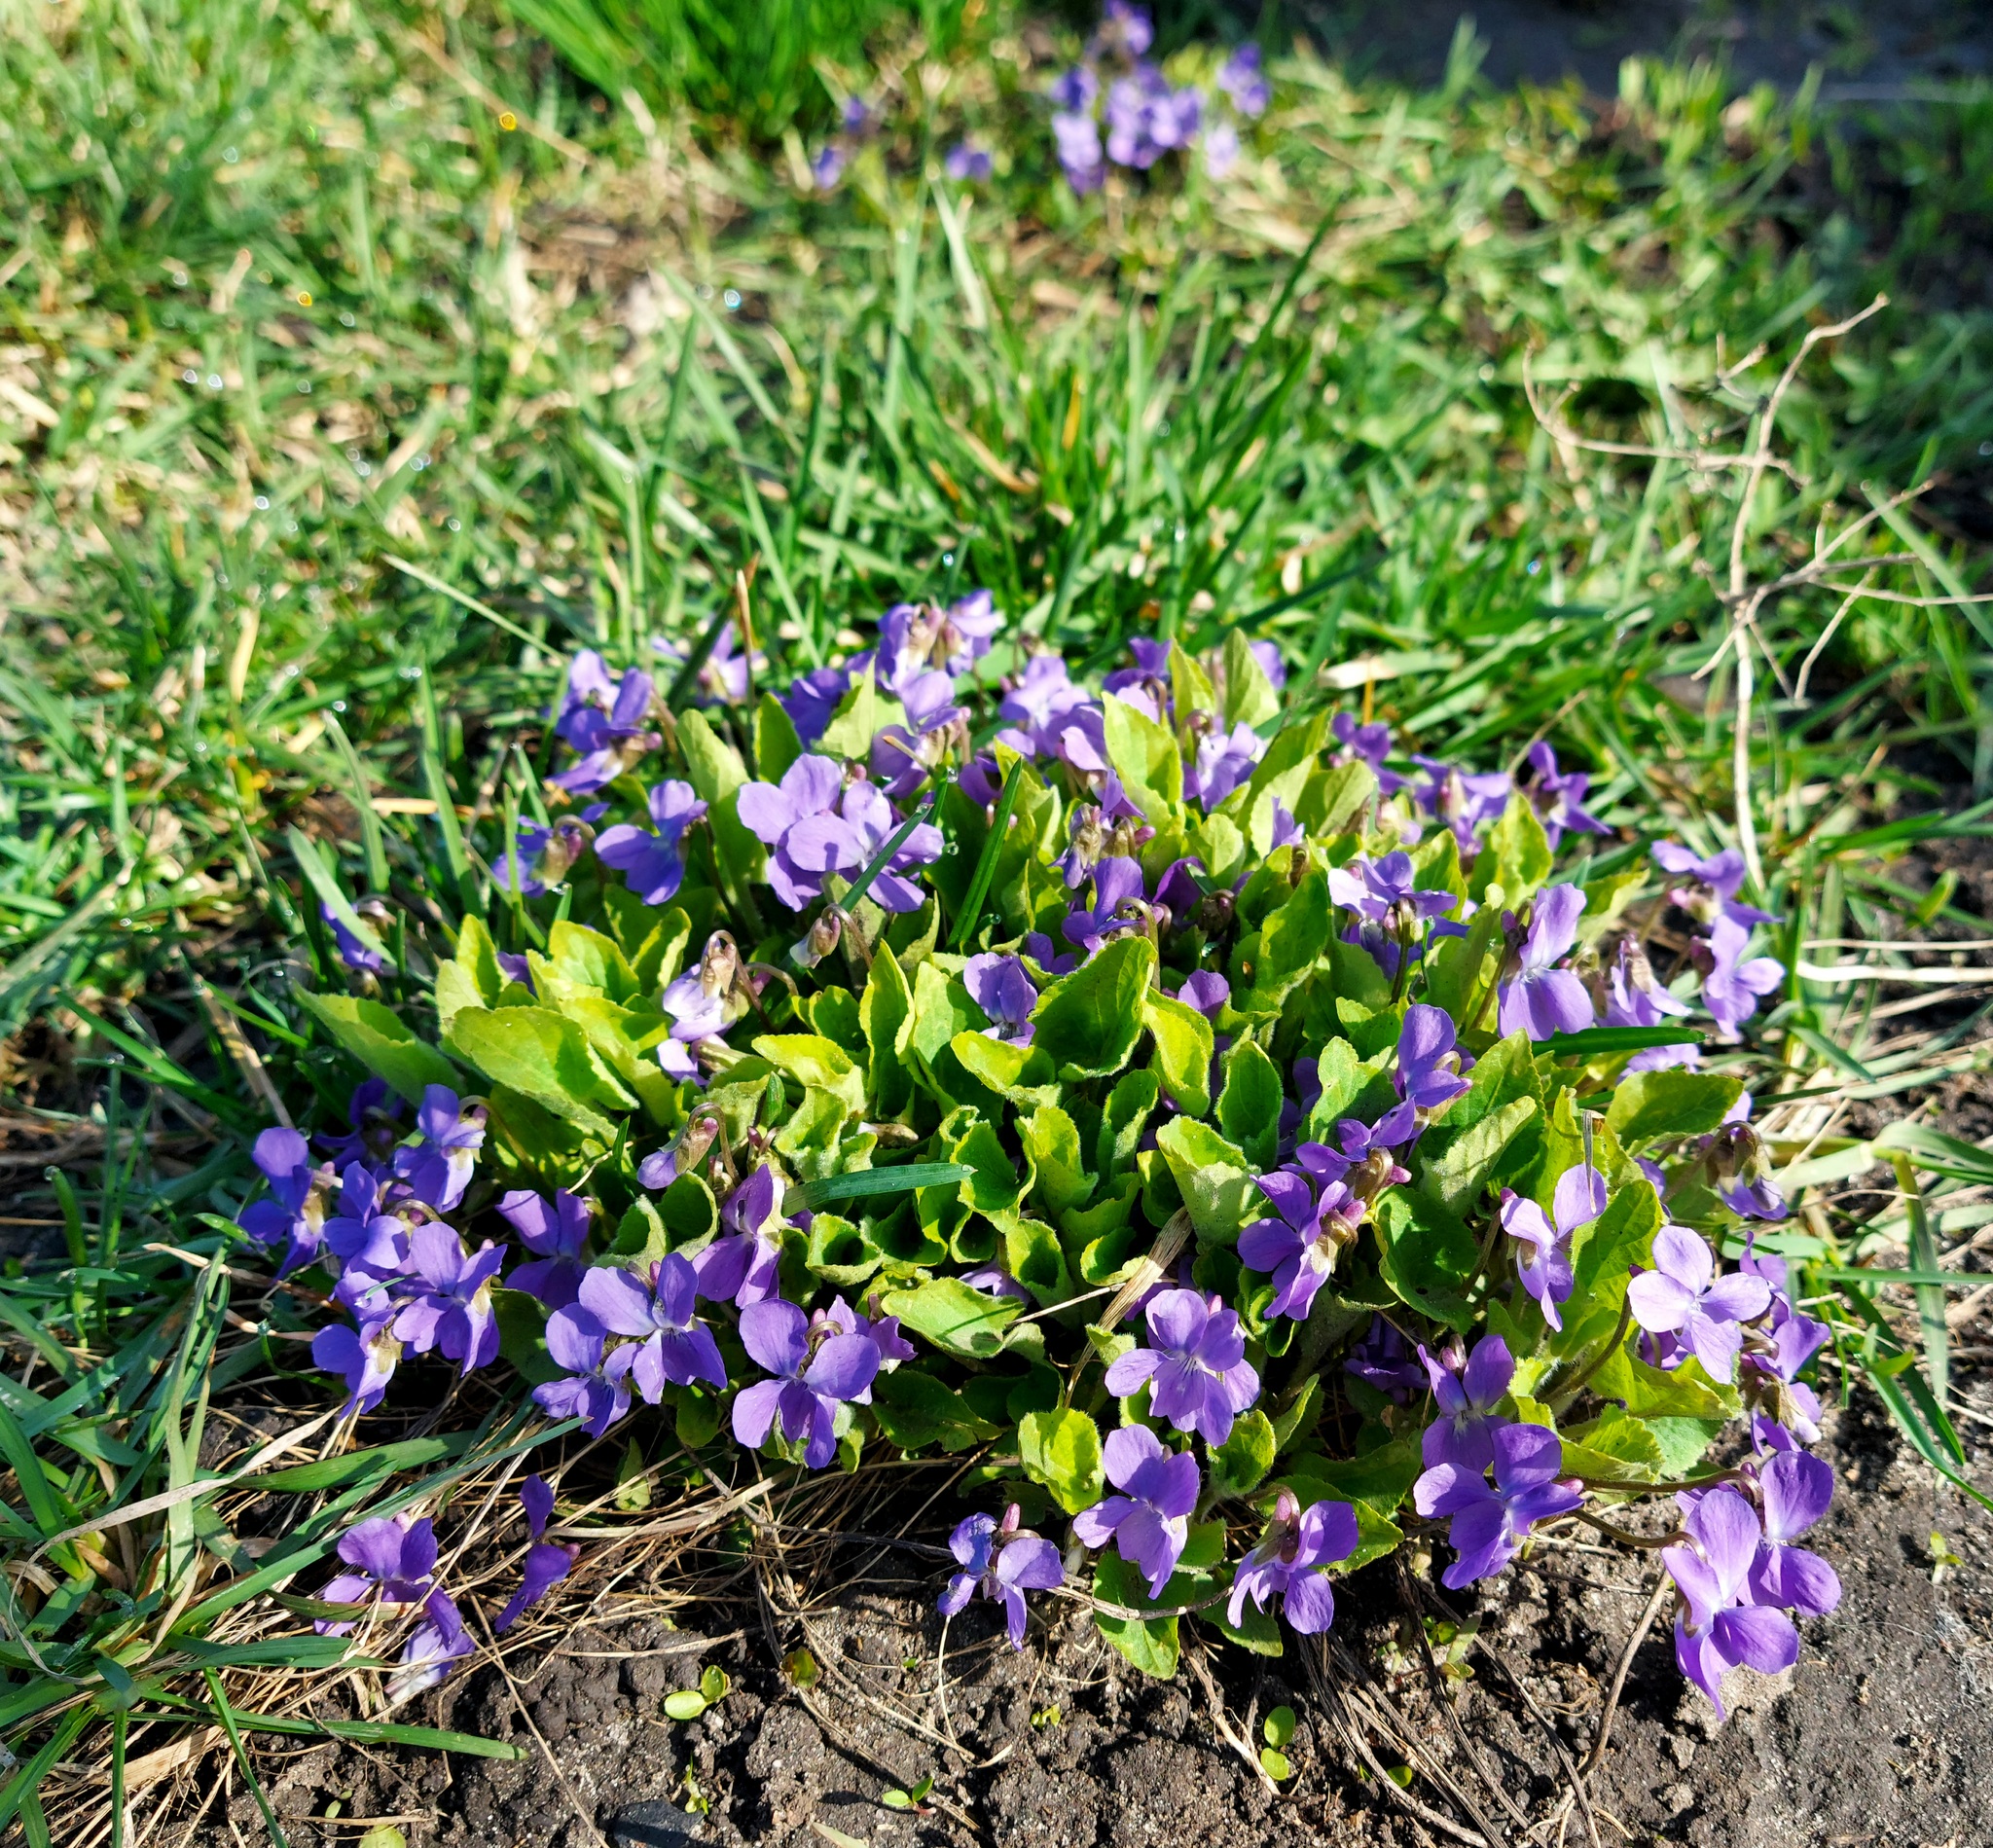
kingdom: Plantae
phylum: Tracheophyta
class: Magnoliopsida
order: Malpighiales
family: Violaceae
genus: Viola
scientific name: Viola hirta
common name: Hairy violet
